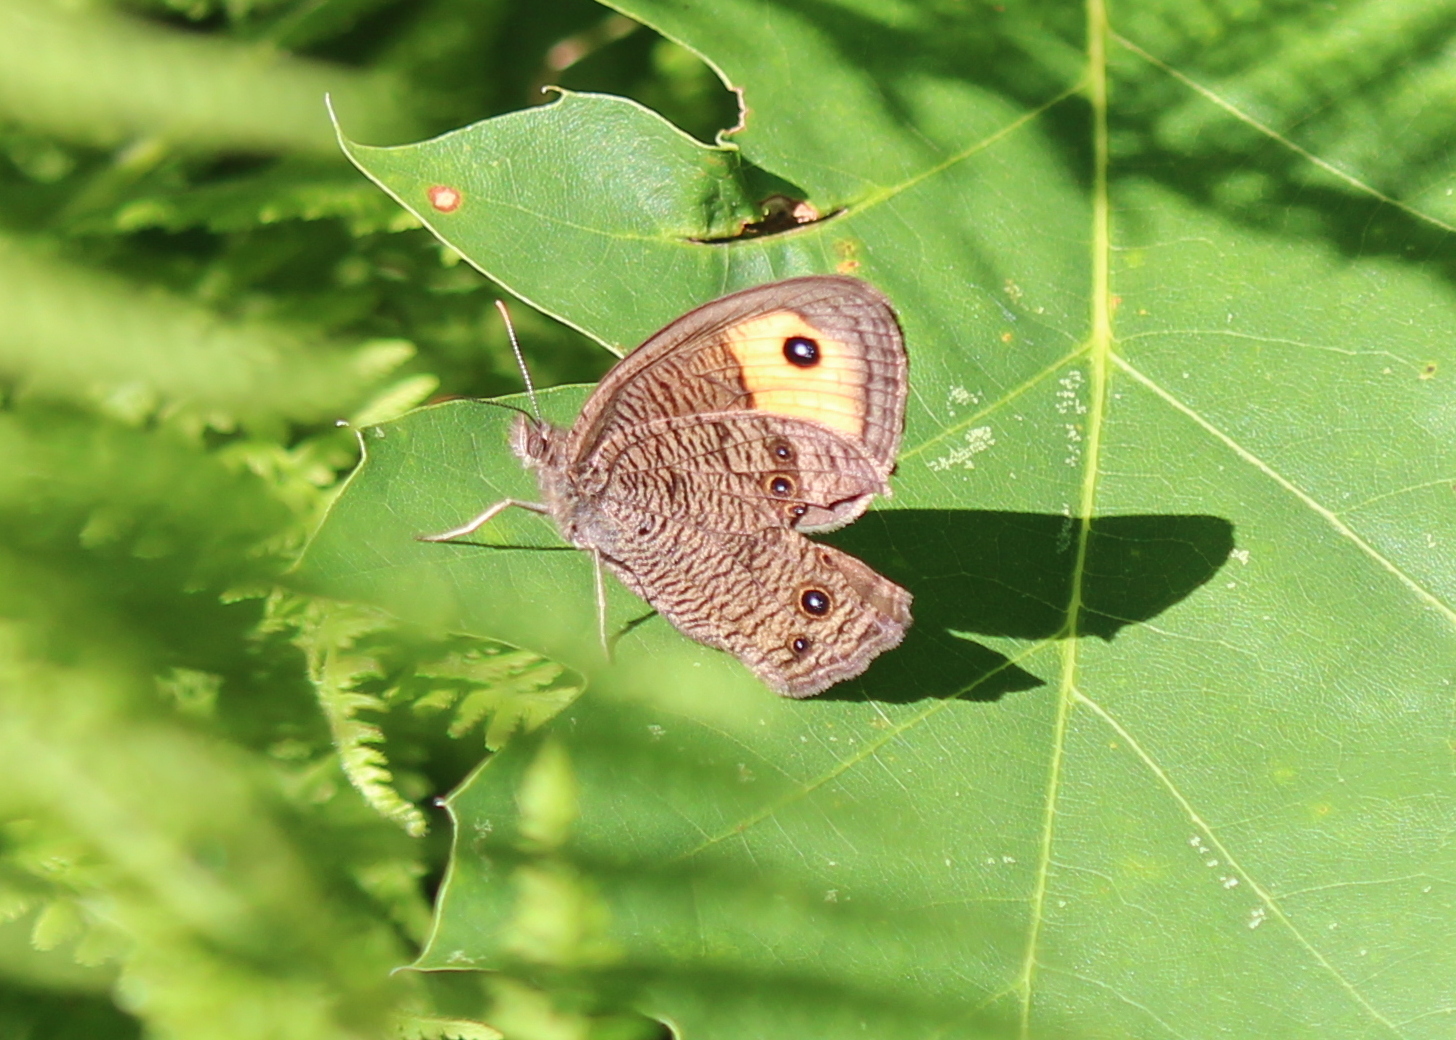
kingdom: Animalia
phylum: Arthropoda
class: Insecta
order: Lepidoptera
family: Nymphalidae
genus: Cercyonis
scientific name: Cercyonis pegala
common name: Common wood-nymph
